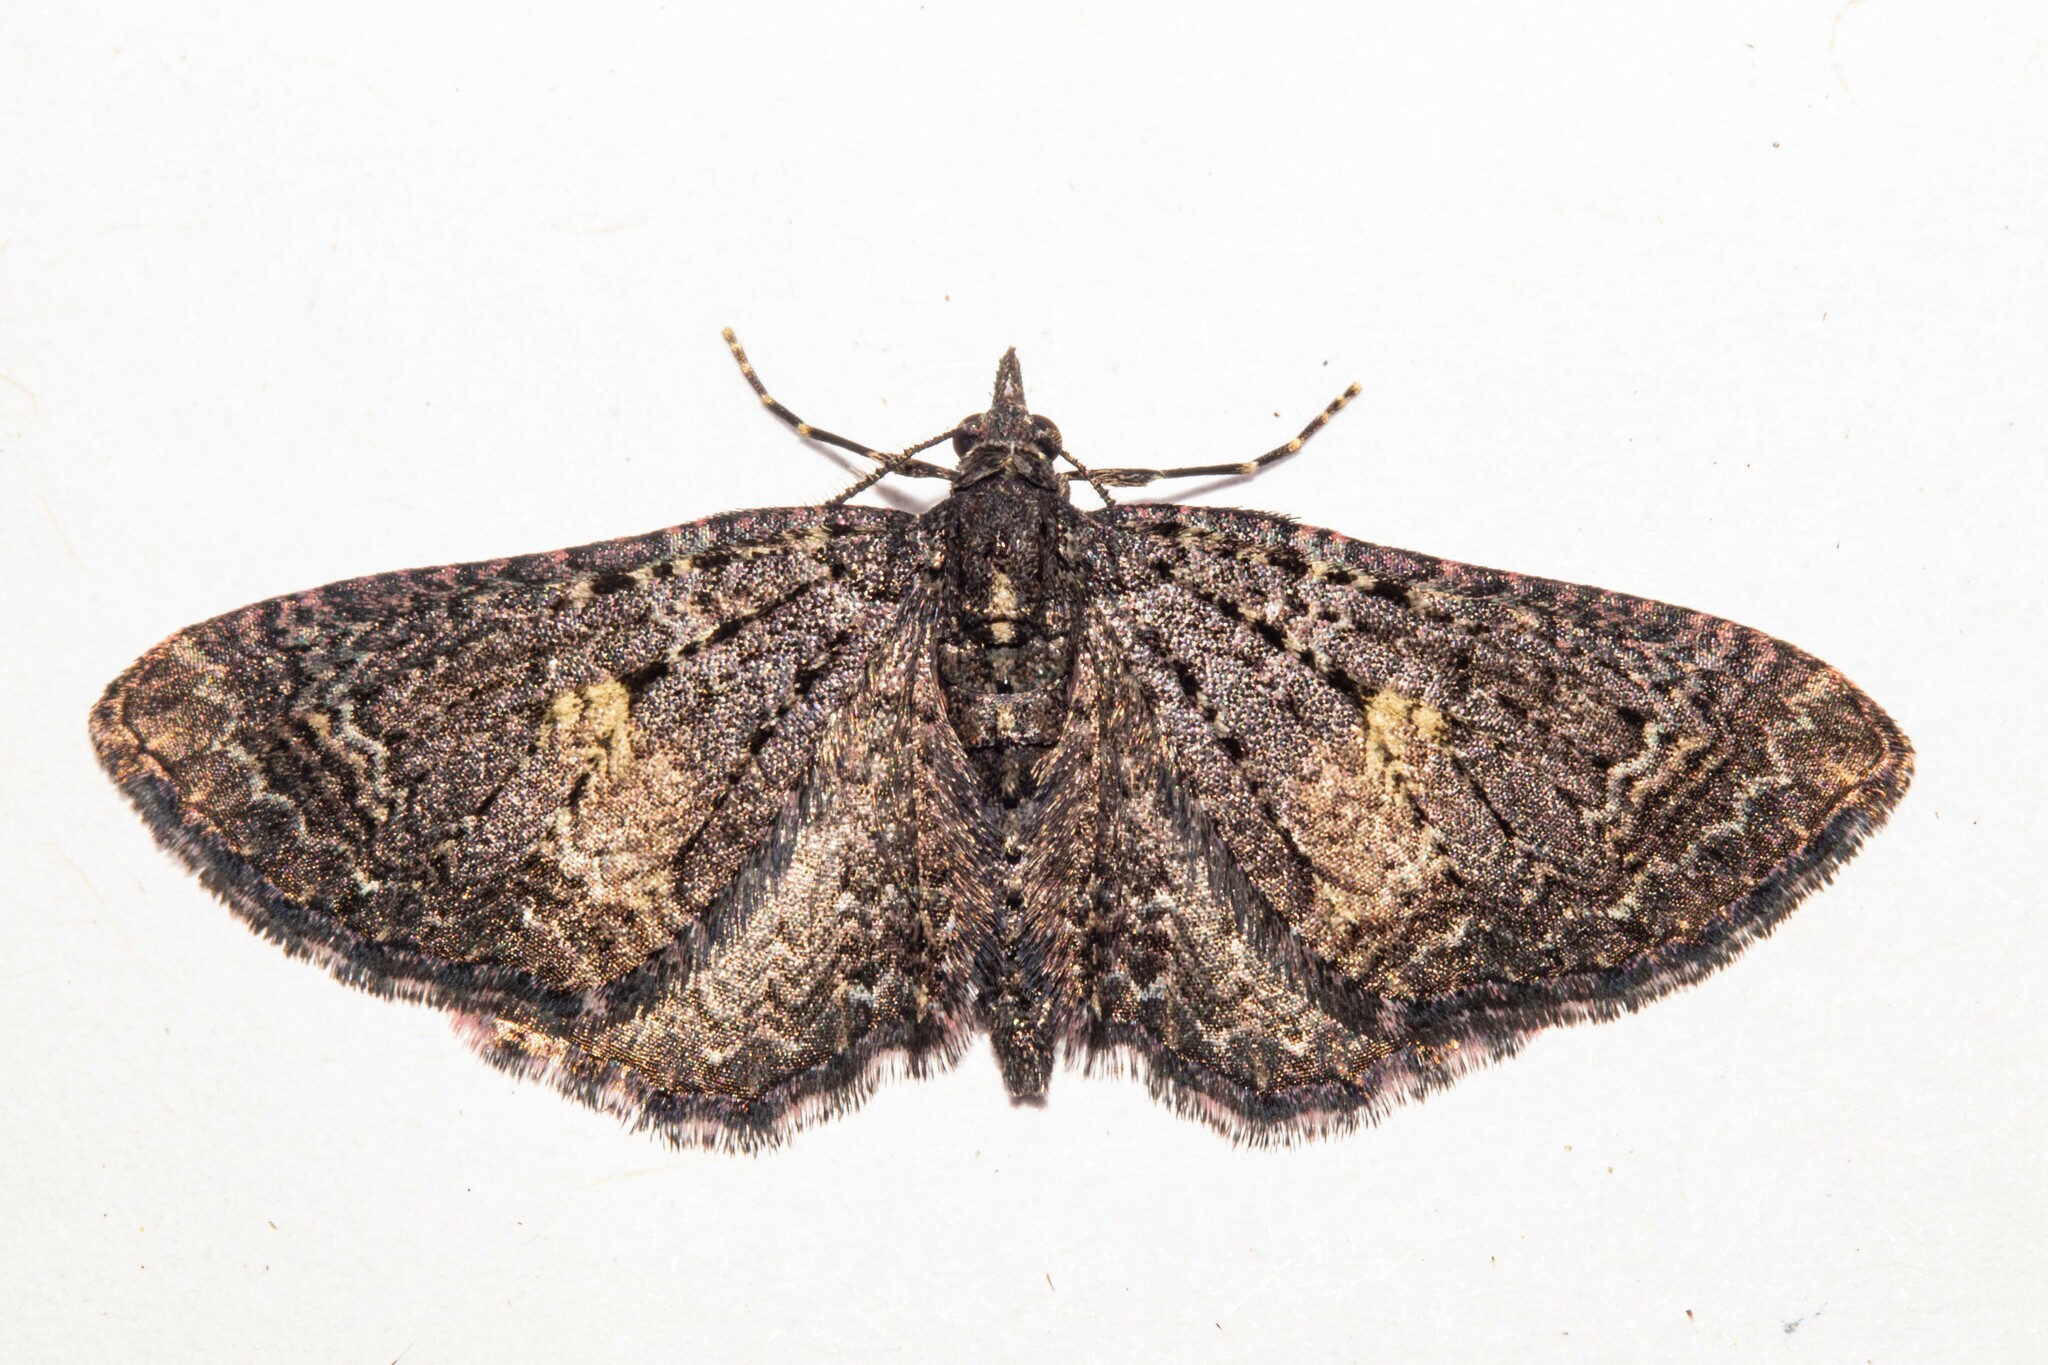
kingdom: Animalia
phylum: Arthropoda
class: Insecta
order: Lepidoptera
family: Geometridae
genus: Pasiphila
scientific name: Pasiphila rubella
